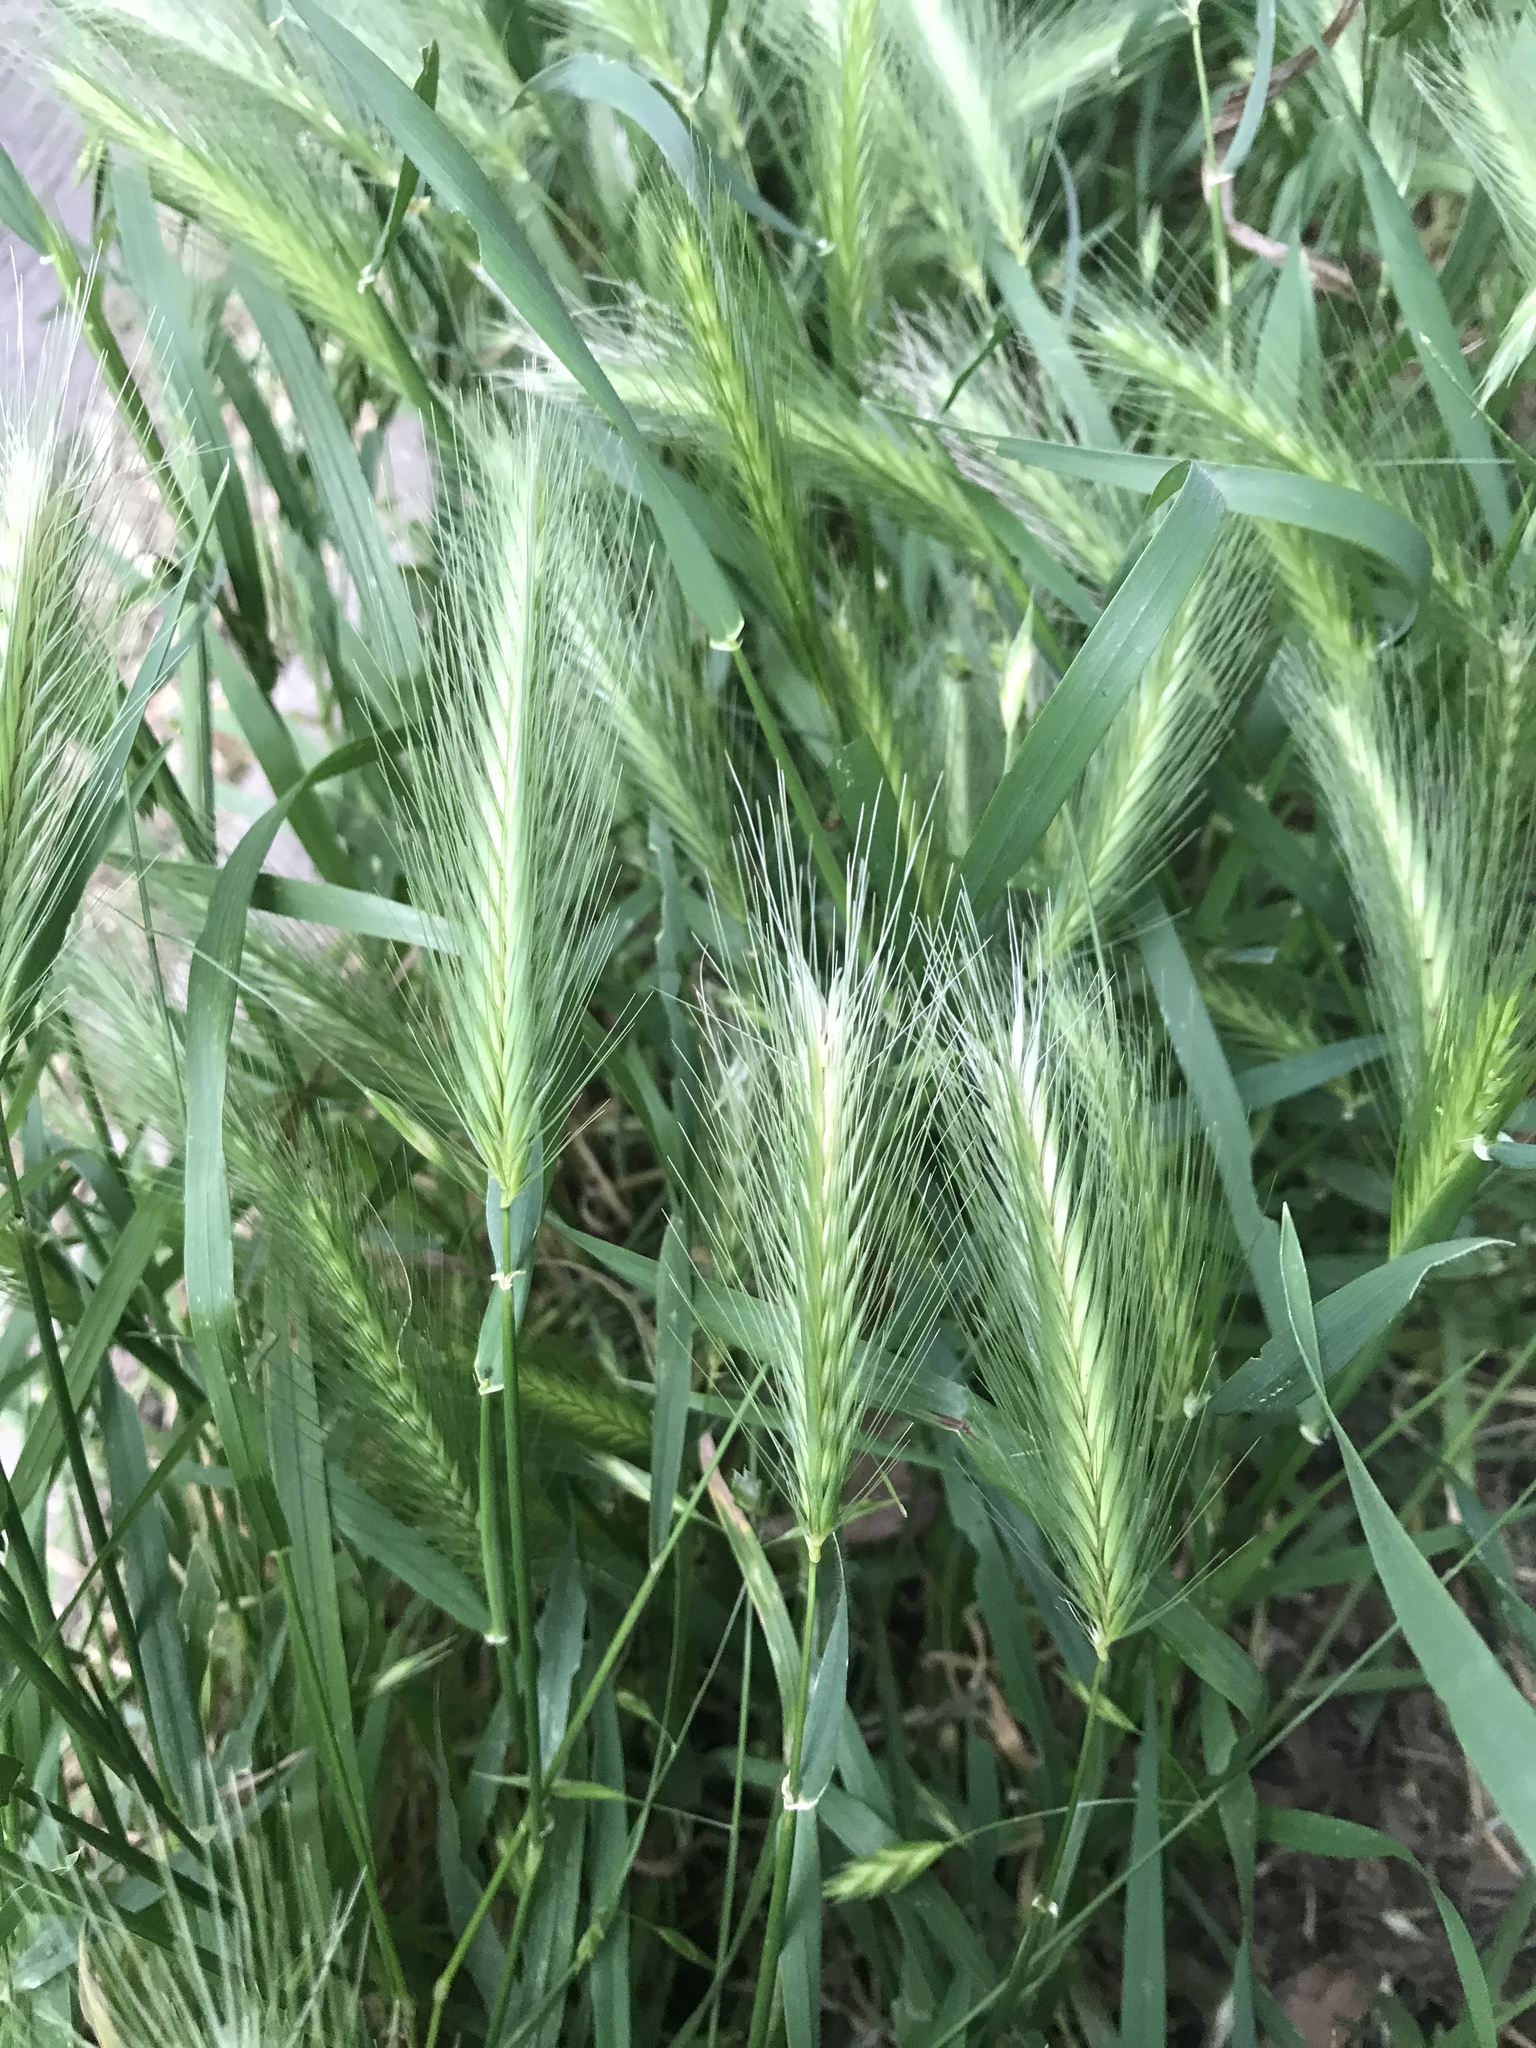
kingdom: Plantae
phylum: Tracheophyta
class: Liliopsida
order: Poales
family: Poaceae
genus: Hordeum
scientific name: Hordeum murinum
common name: Wall barley
